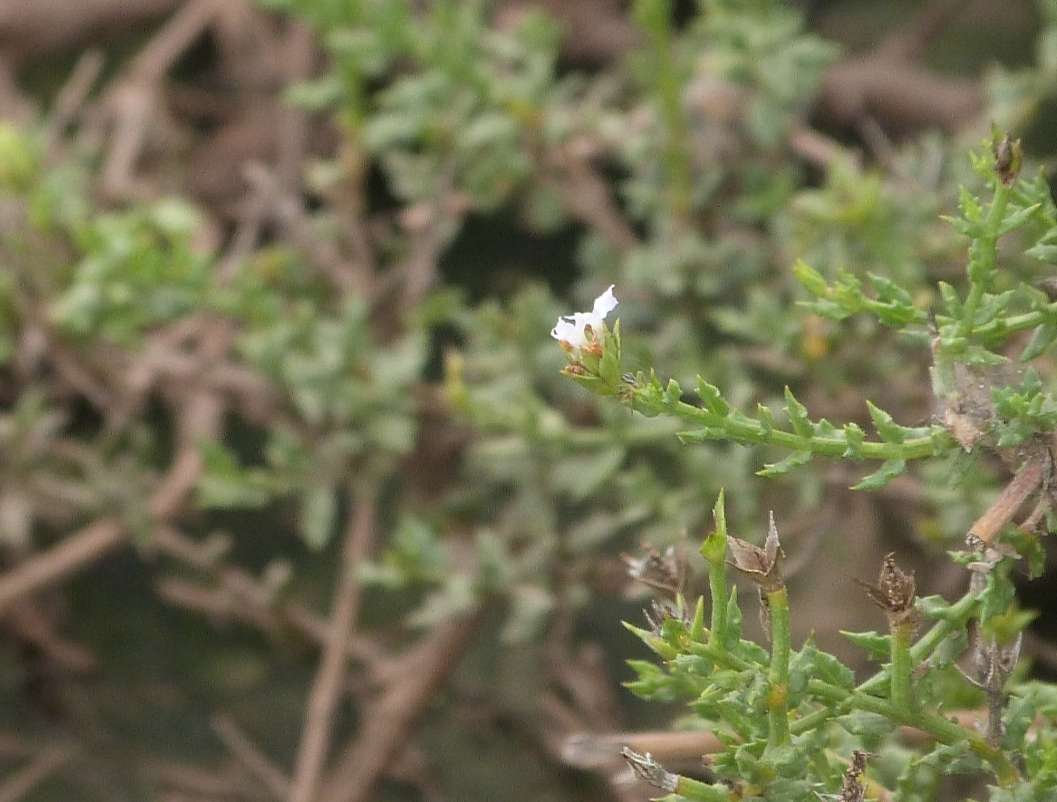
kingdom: Plantae
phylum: Tracheophyta
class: Magnoliopsida
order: Lamiales
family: Verbenaceae
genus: Lippia
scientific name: Lippia salsa
